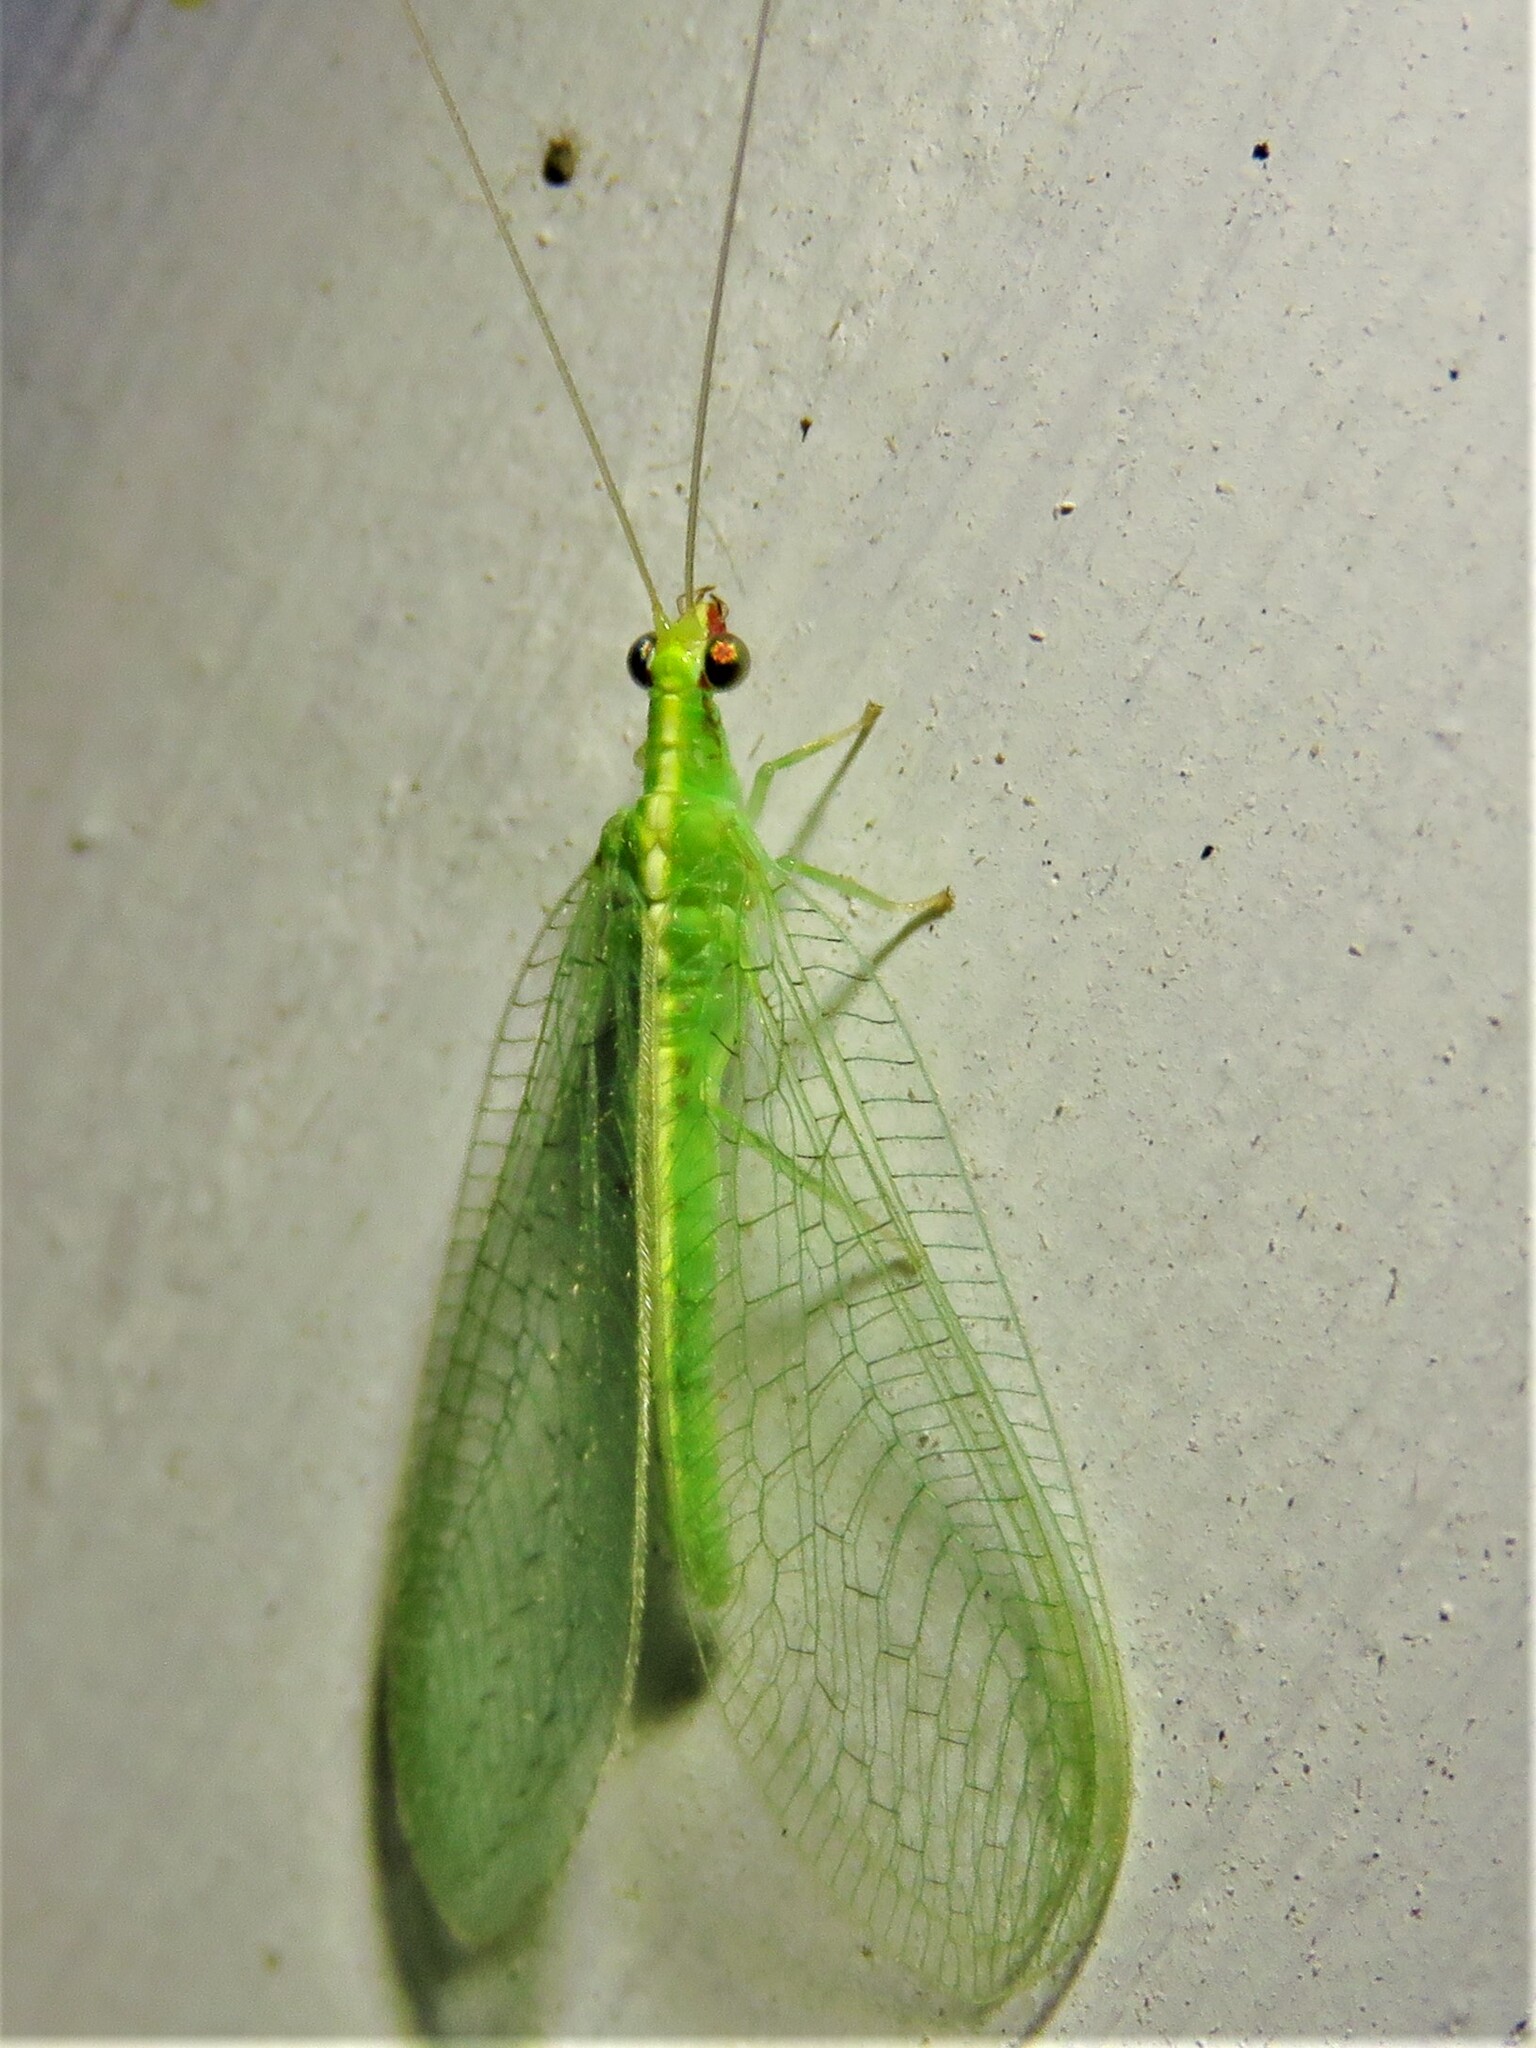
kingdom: Animalia
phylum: Arthropoda
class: Insecta
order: Neuroptera
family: Chrysopidae
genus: Chrysoperla
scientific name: Chrysoperla rufilabris
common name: Red-lipped green lacewing
